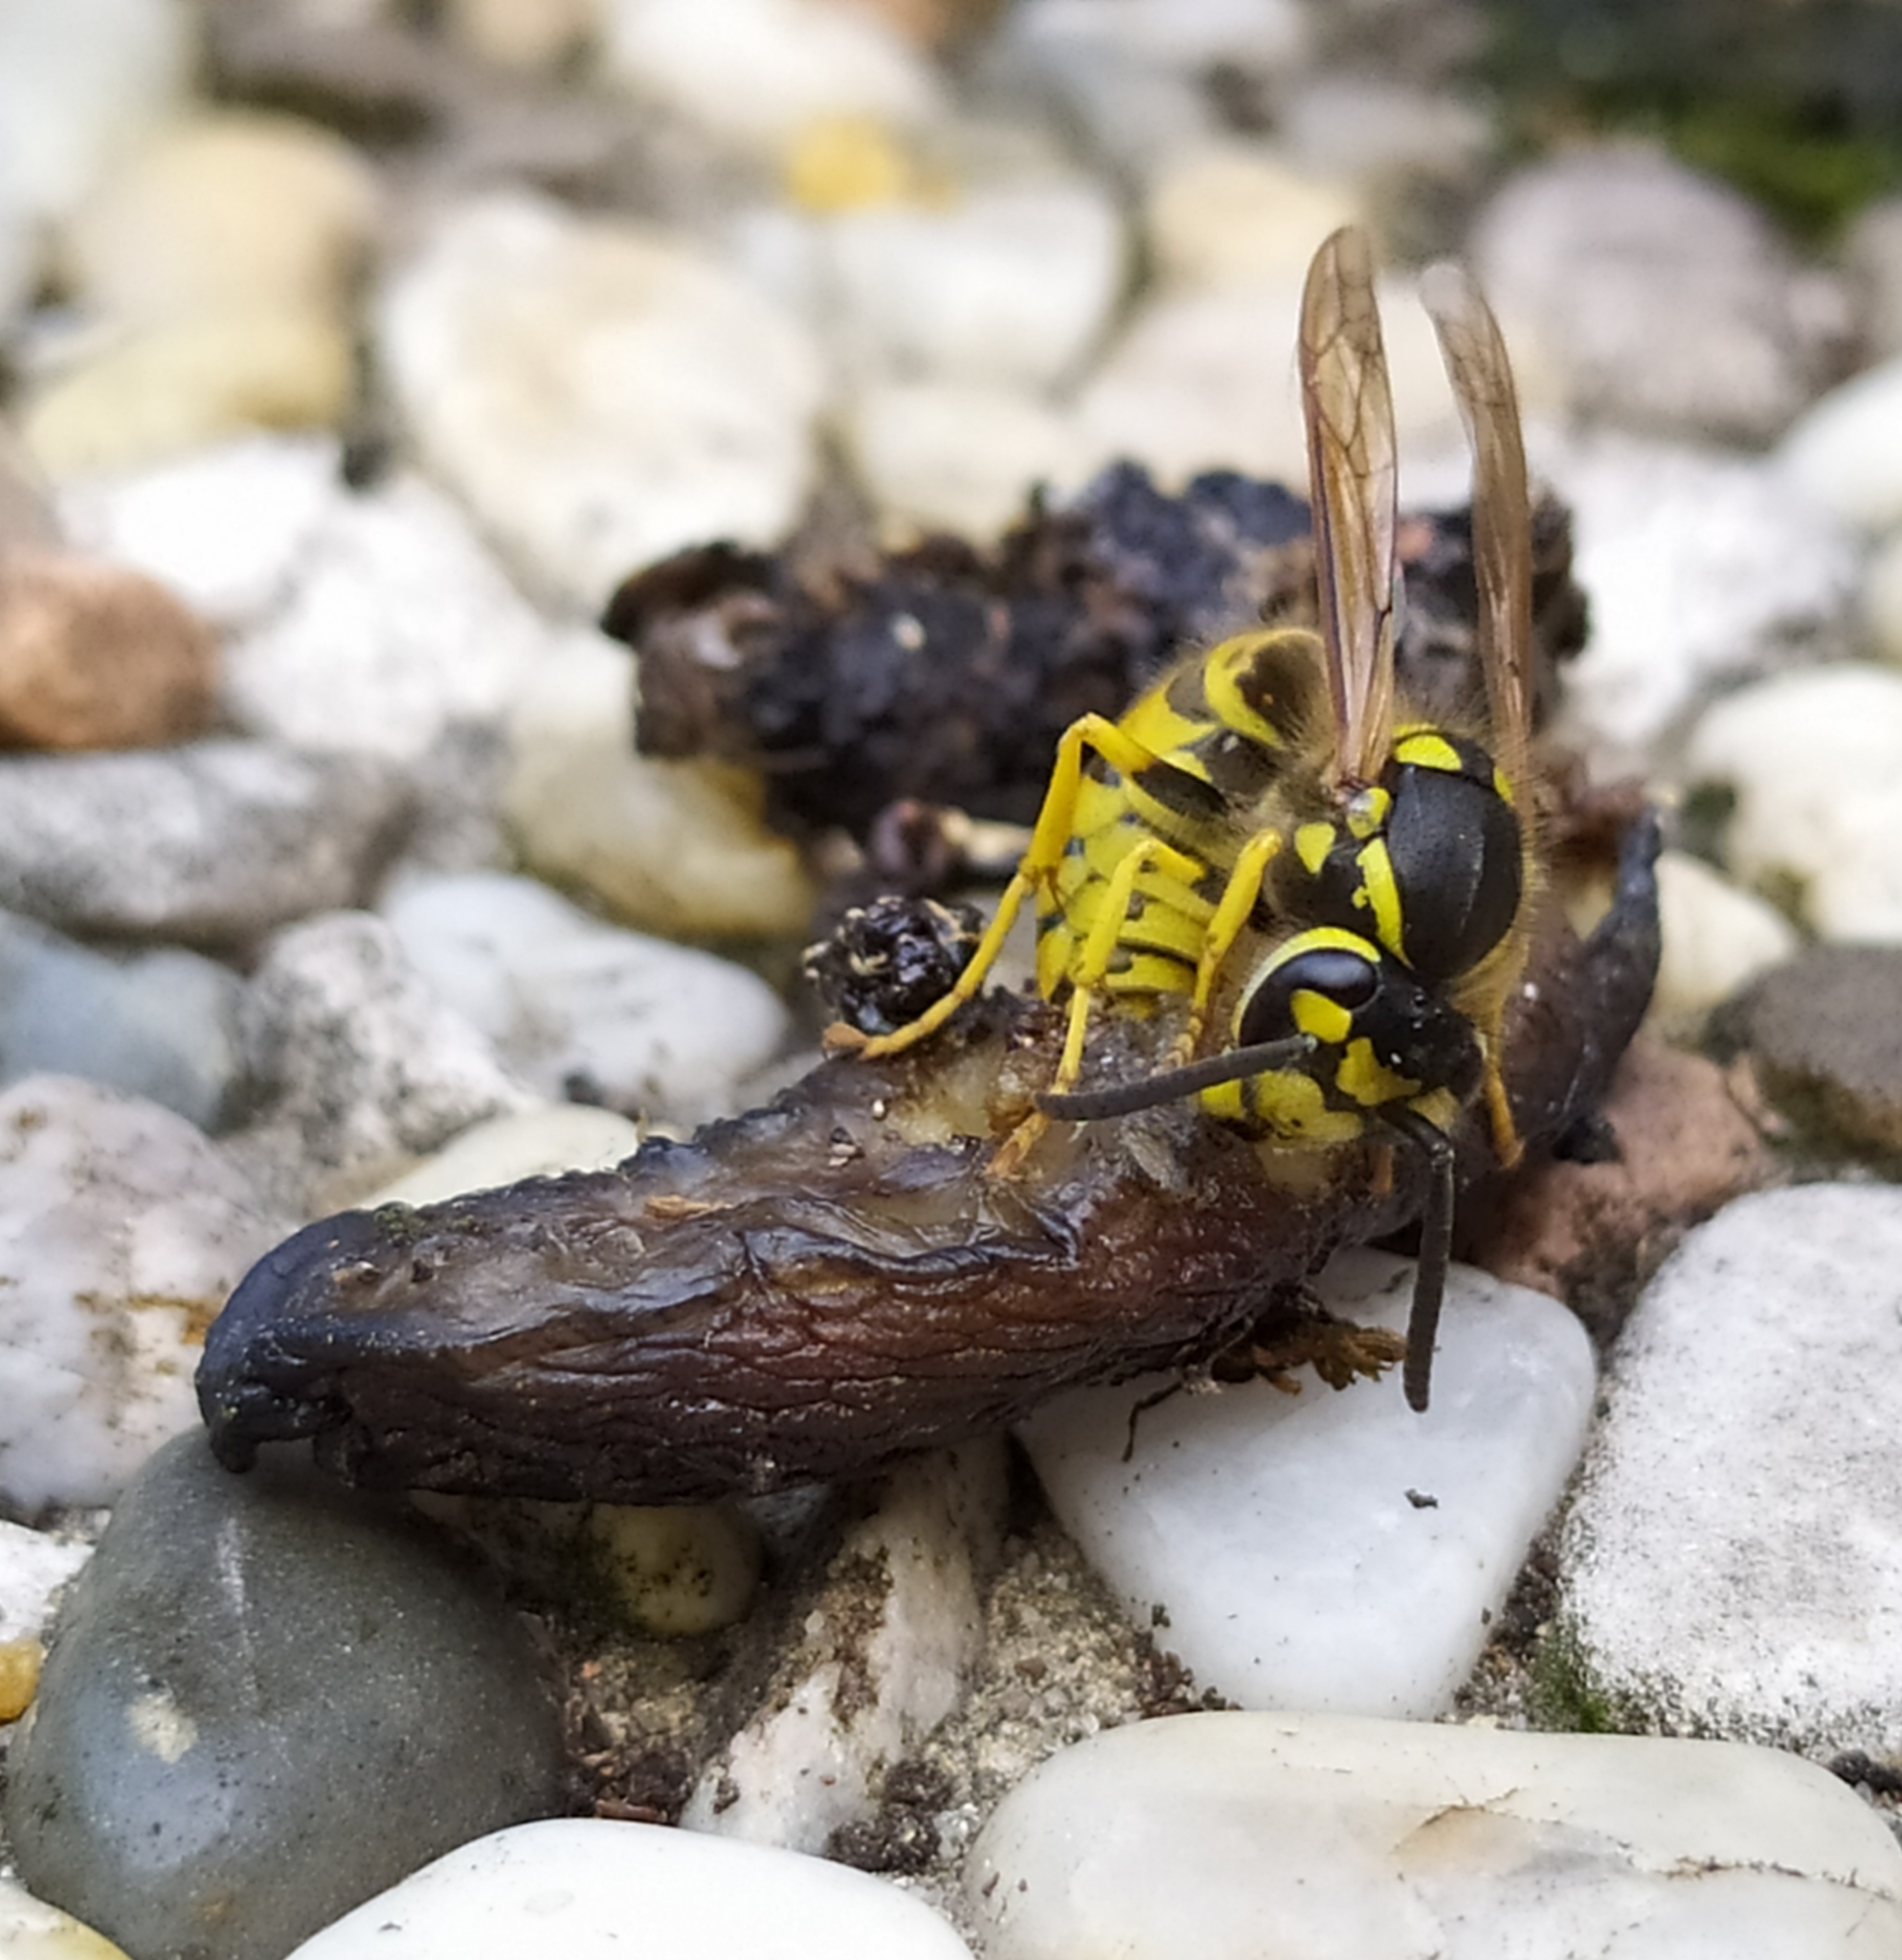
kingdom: Animalia
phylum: Arthropoda
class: Insecta
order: Hymenoptera
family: Vespidae
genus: Vespula
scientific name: Vespula germanica
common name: German wasp
